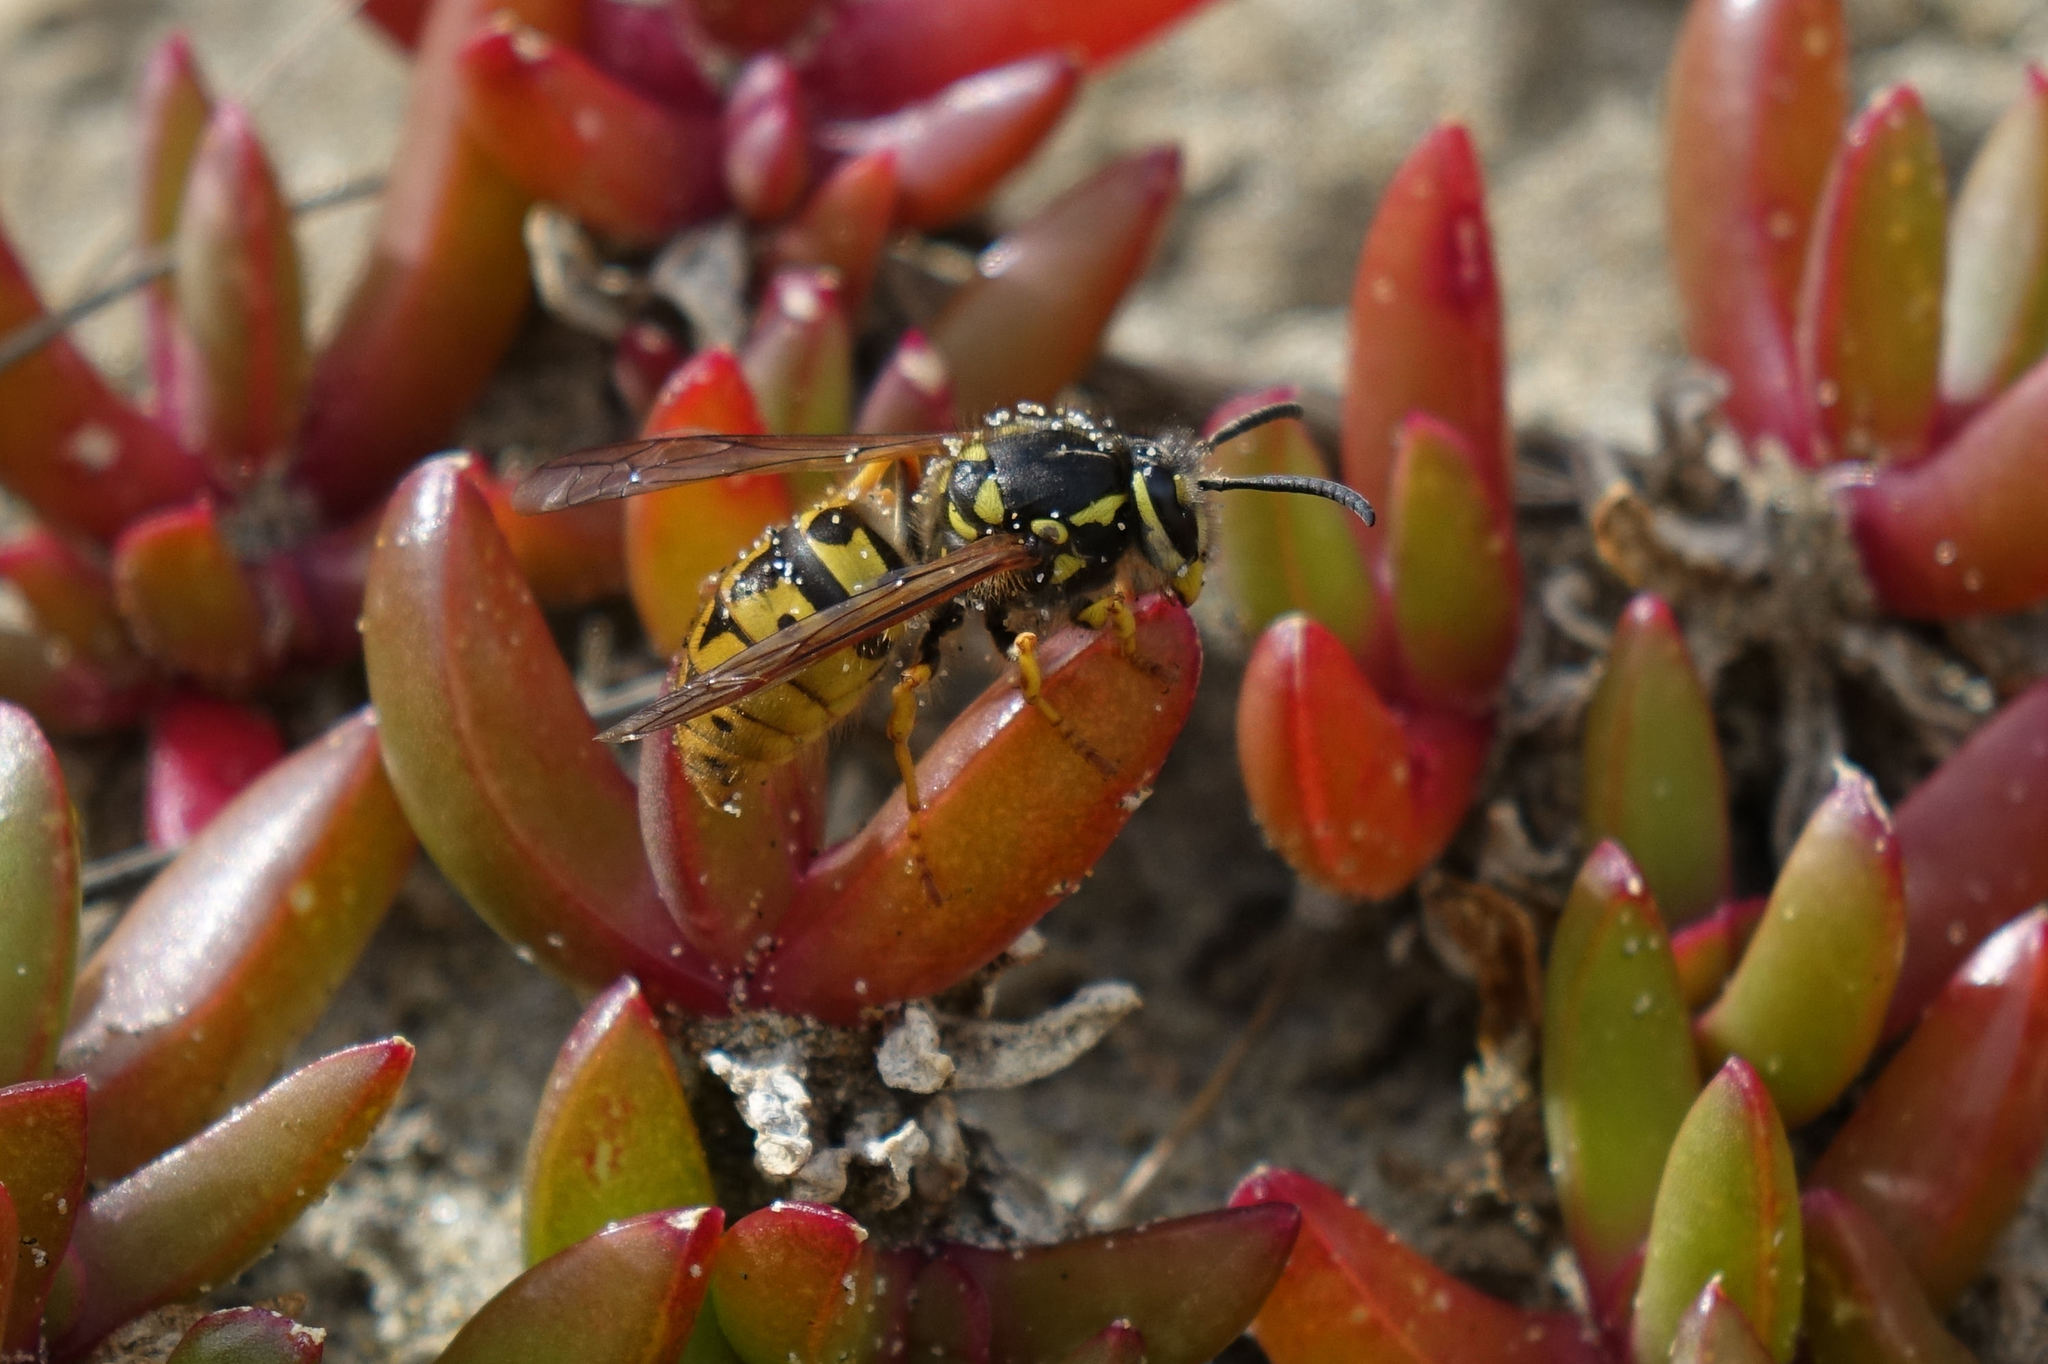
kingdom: Animalia
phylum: Arthropoda
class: Insecta
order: Hymenoptera
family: Vespidae
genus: Vespula
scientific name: Vespula germanica
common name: German wasp
